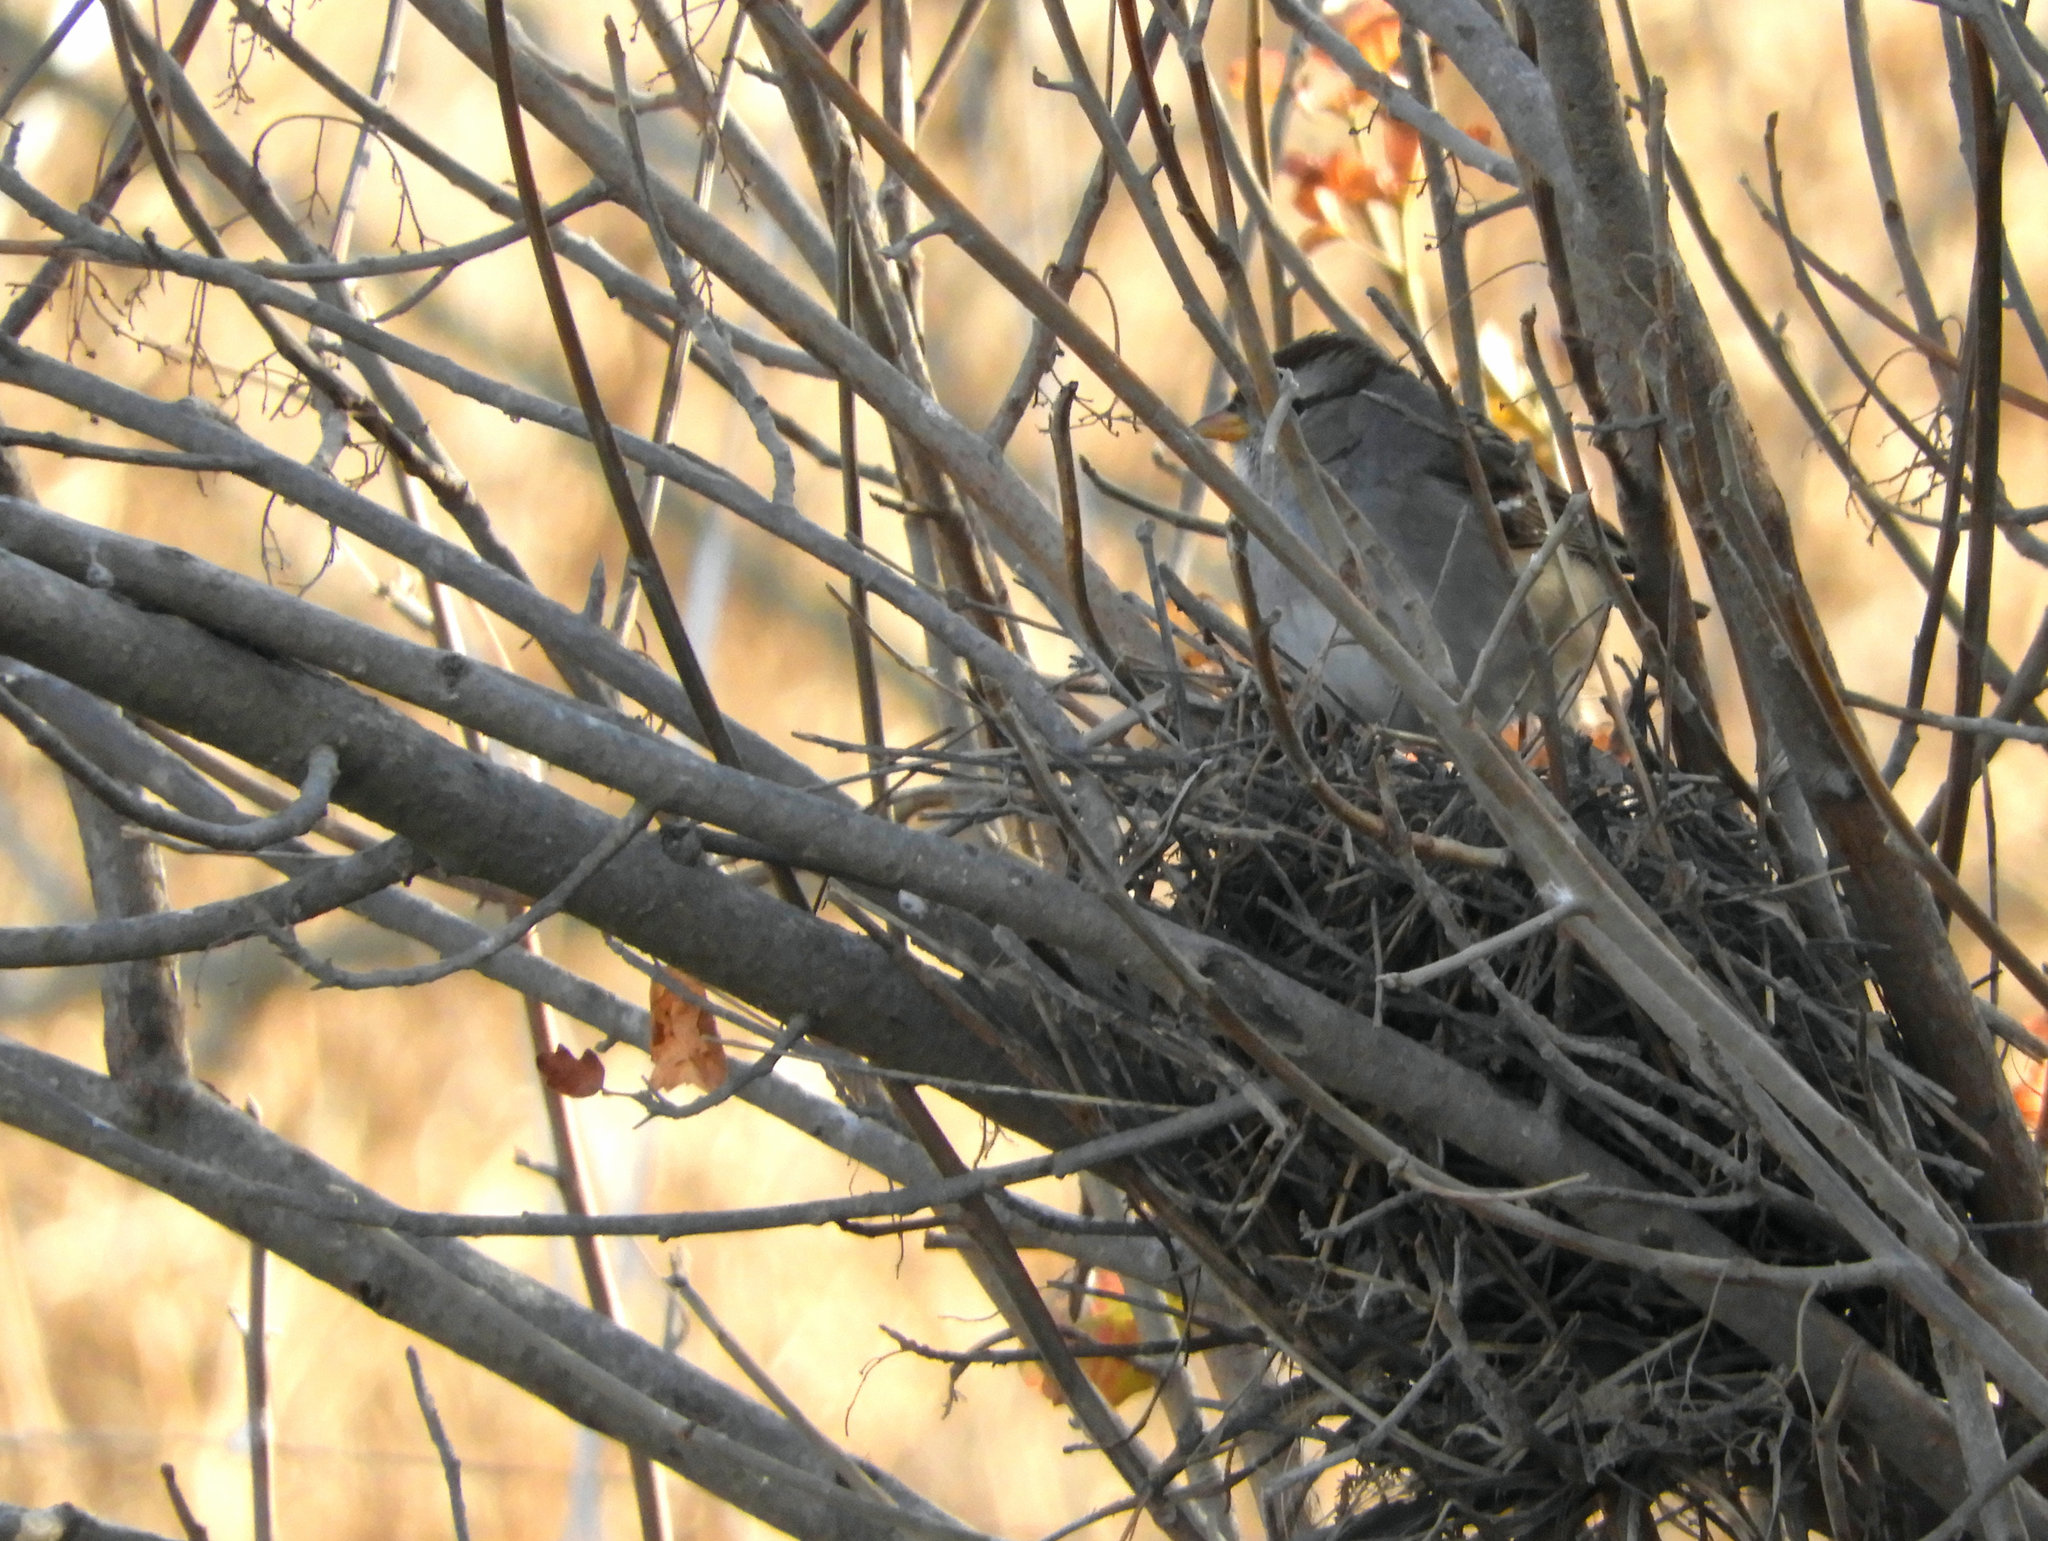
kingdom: Animalia
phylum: Chordata
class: Aves
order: Passeriformes
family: Passerellidae
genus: Zonotrichia
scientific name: Zonotrichia leucophrys
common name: White-crowned sparrow
